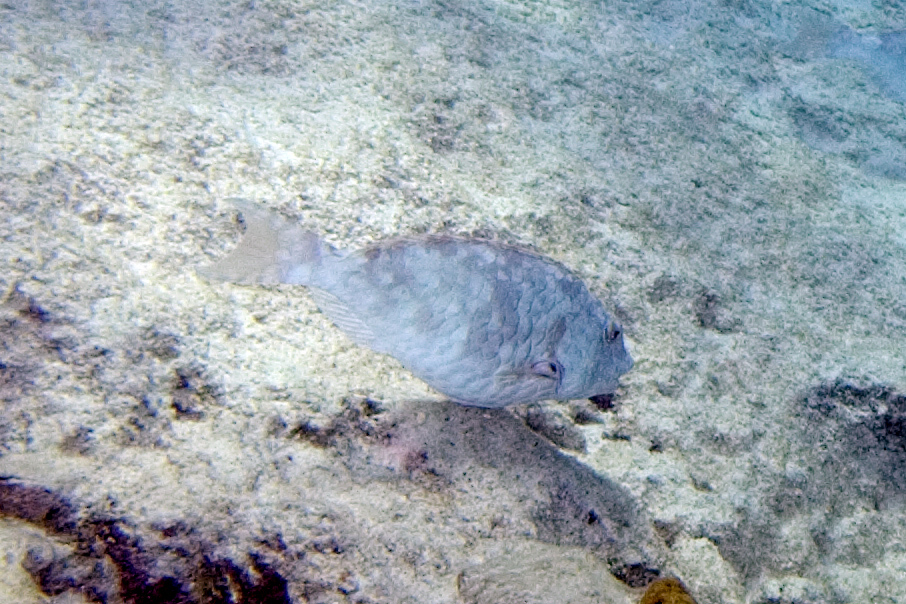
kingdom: Animalia
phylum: Chordata
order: Perciformes
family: Scaridae
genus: Sparisoma
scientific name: Sparisoma chrysopterum
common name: Redtail parrotfish
